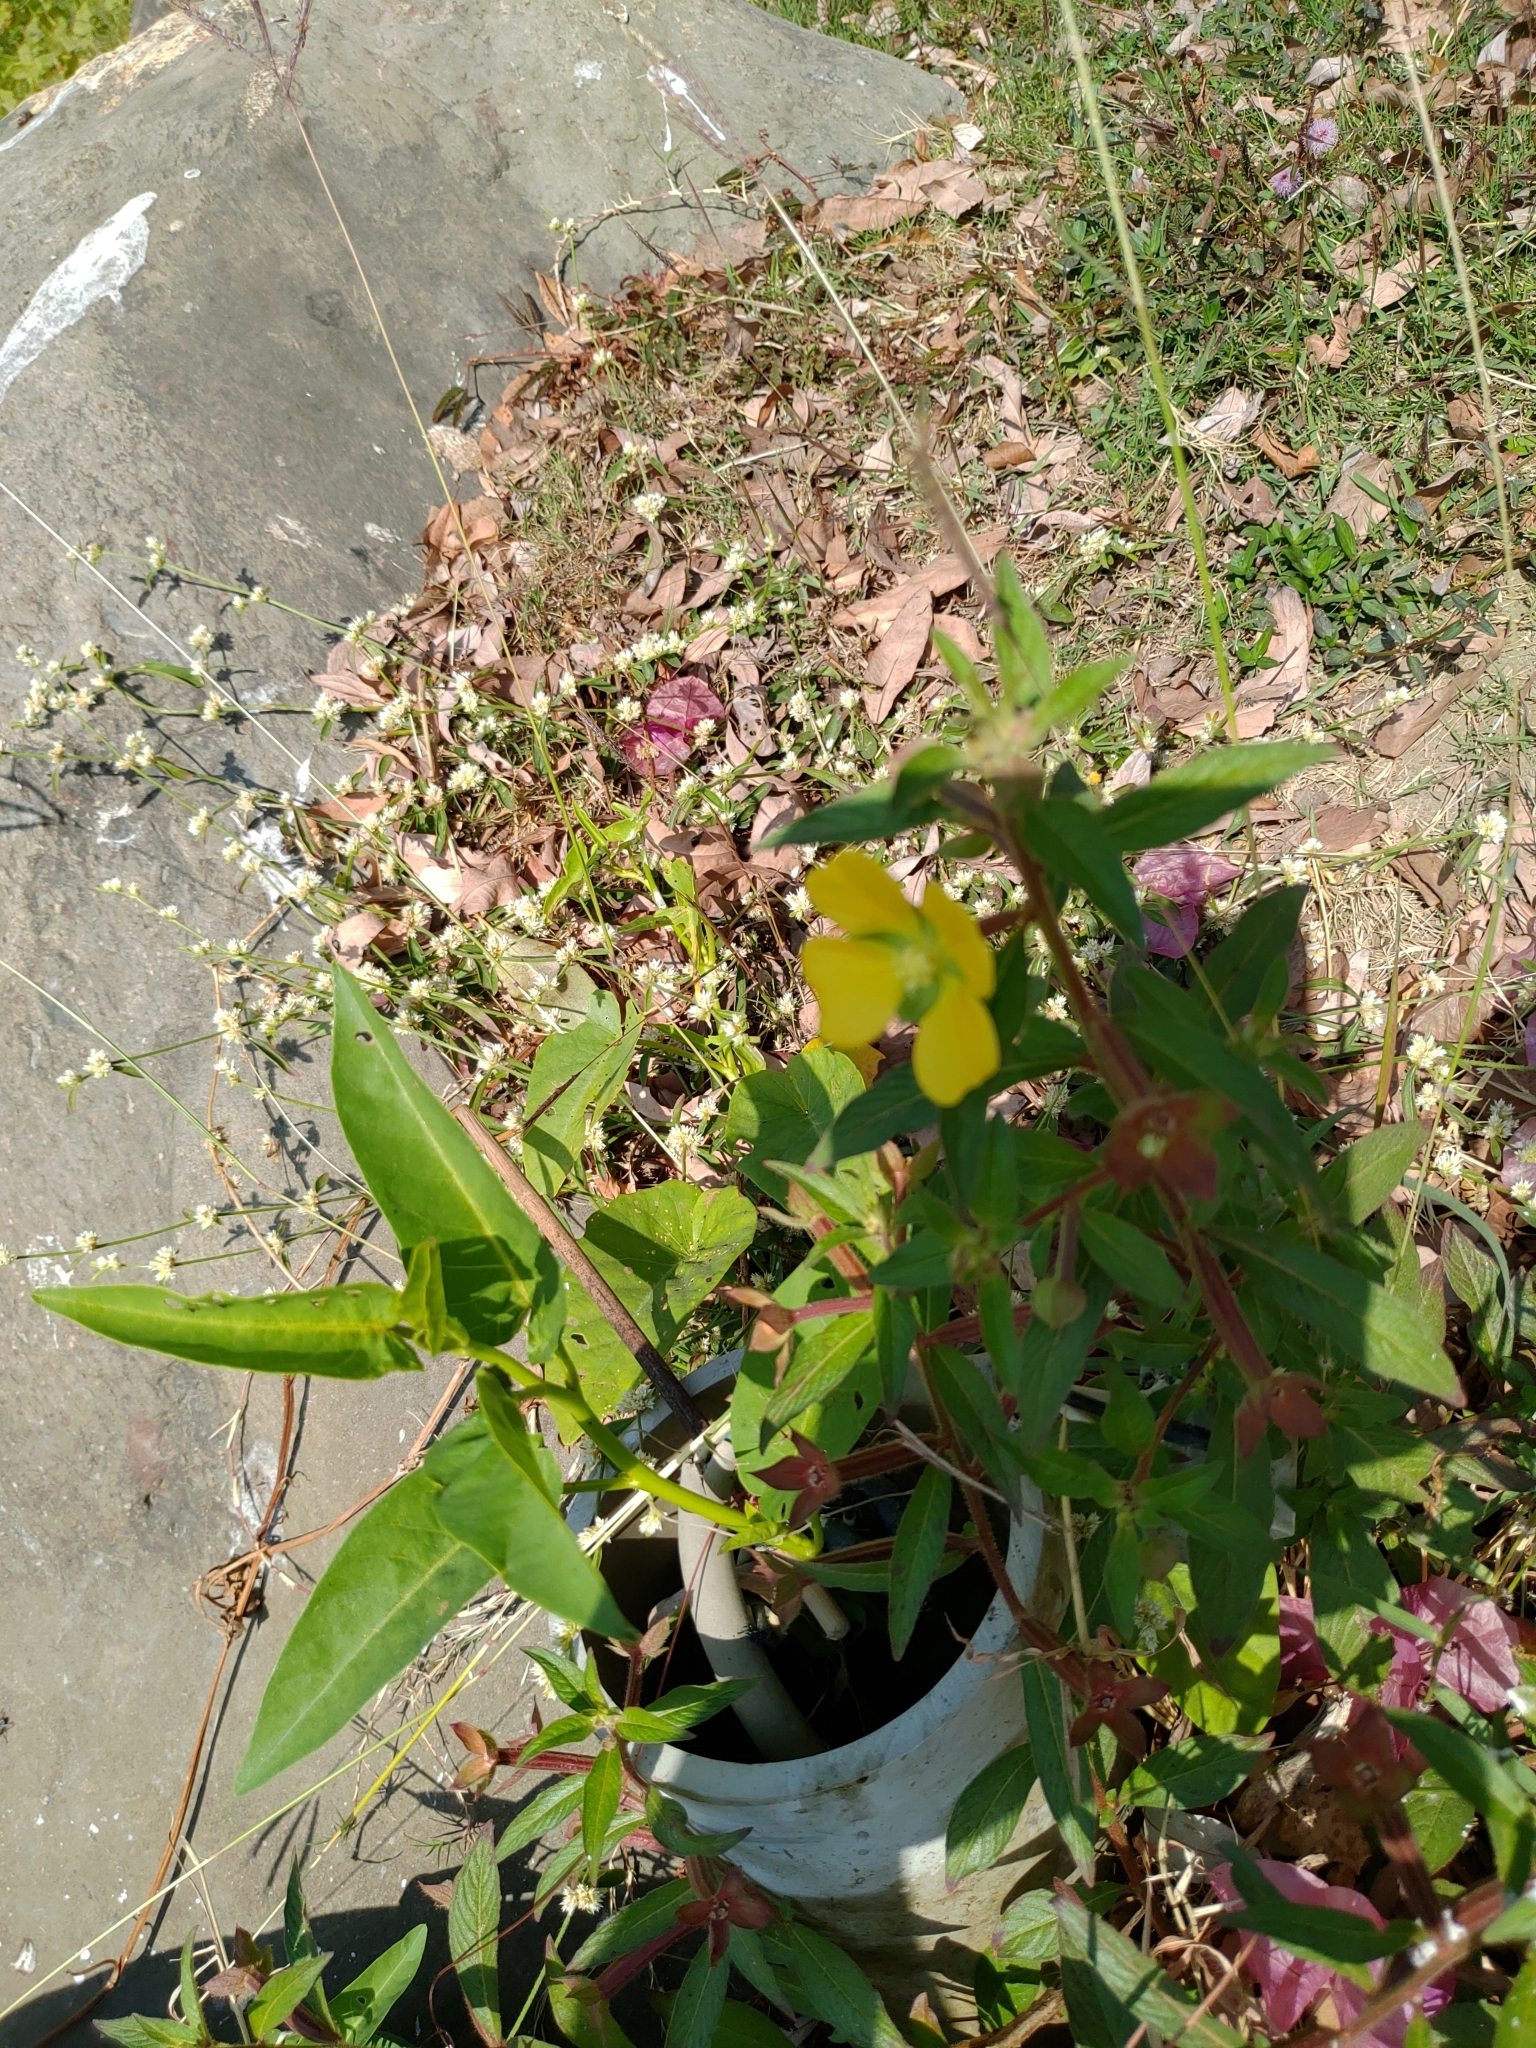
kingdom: Plantae
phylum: Tracheophyta
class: Magnoliopsida
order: Myrtales
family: Onagraceae
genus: Ludwigia
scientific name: Ludwigia octovalvis
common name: Water-primrose
